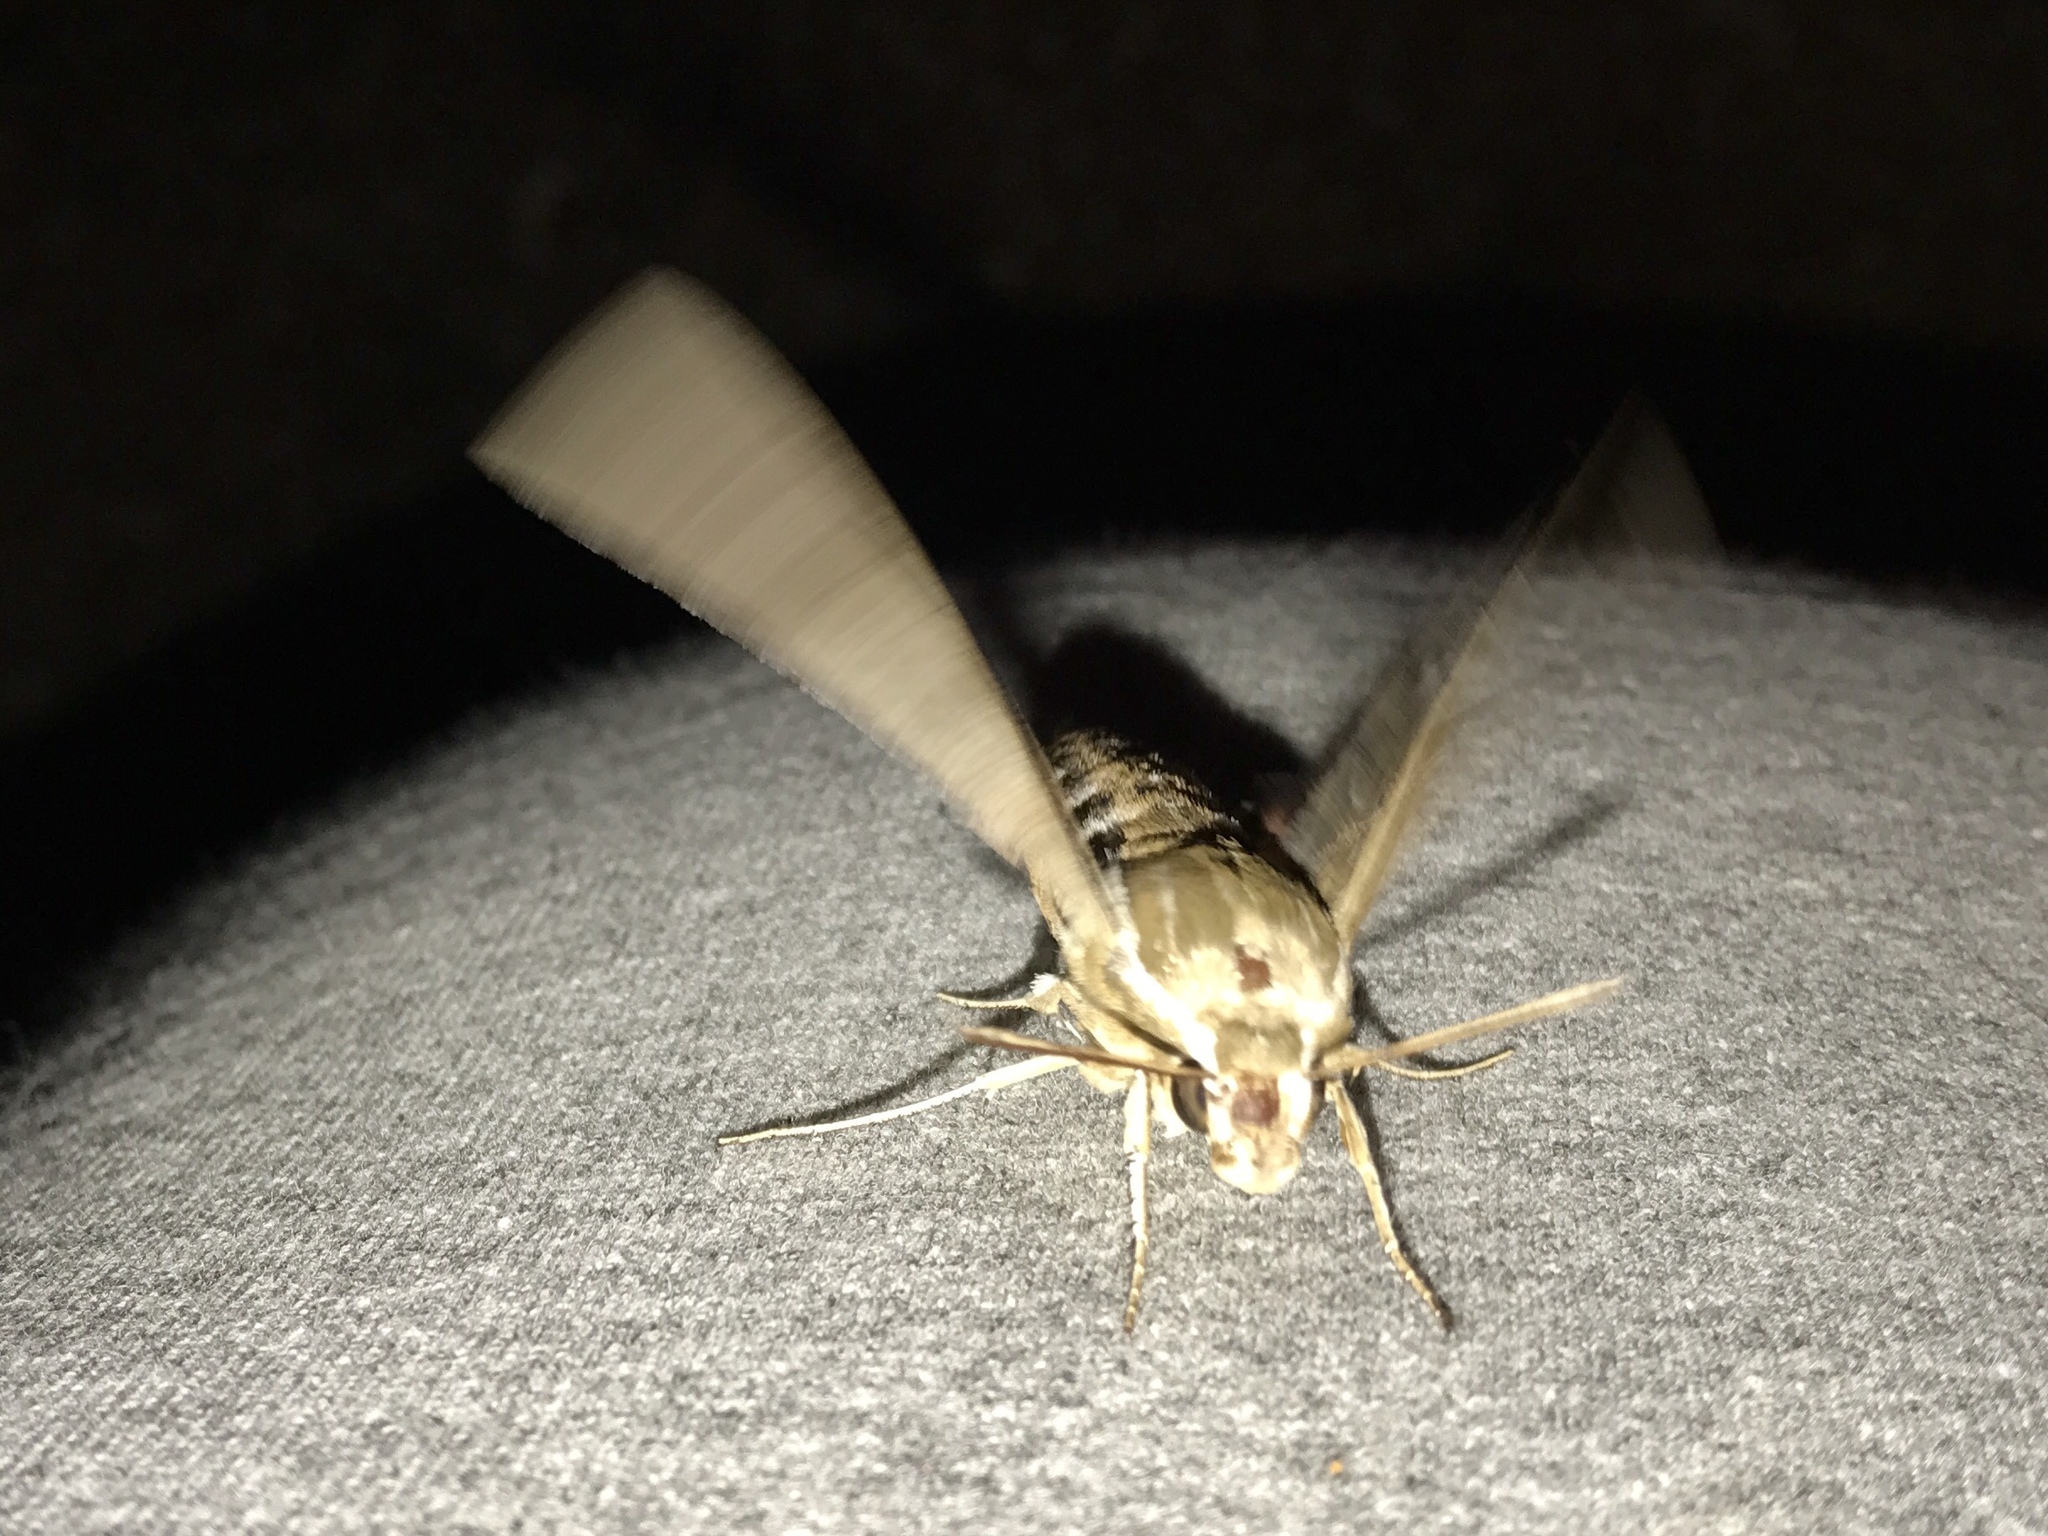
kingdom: Animalia
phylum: Arthropoda
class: Insecta
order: Lepidoptera
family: Sphingidae
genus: Hyles
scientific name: Hyles lineata
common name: White-lined sphinx
